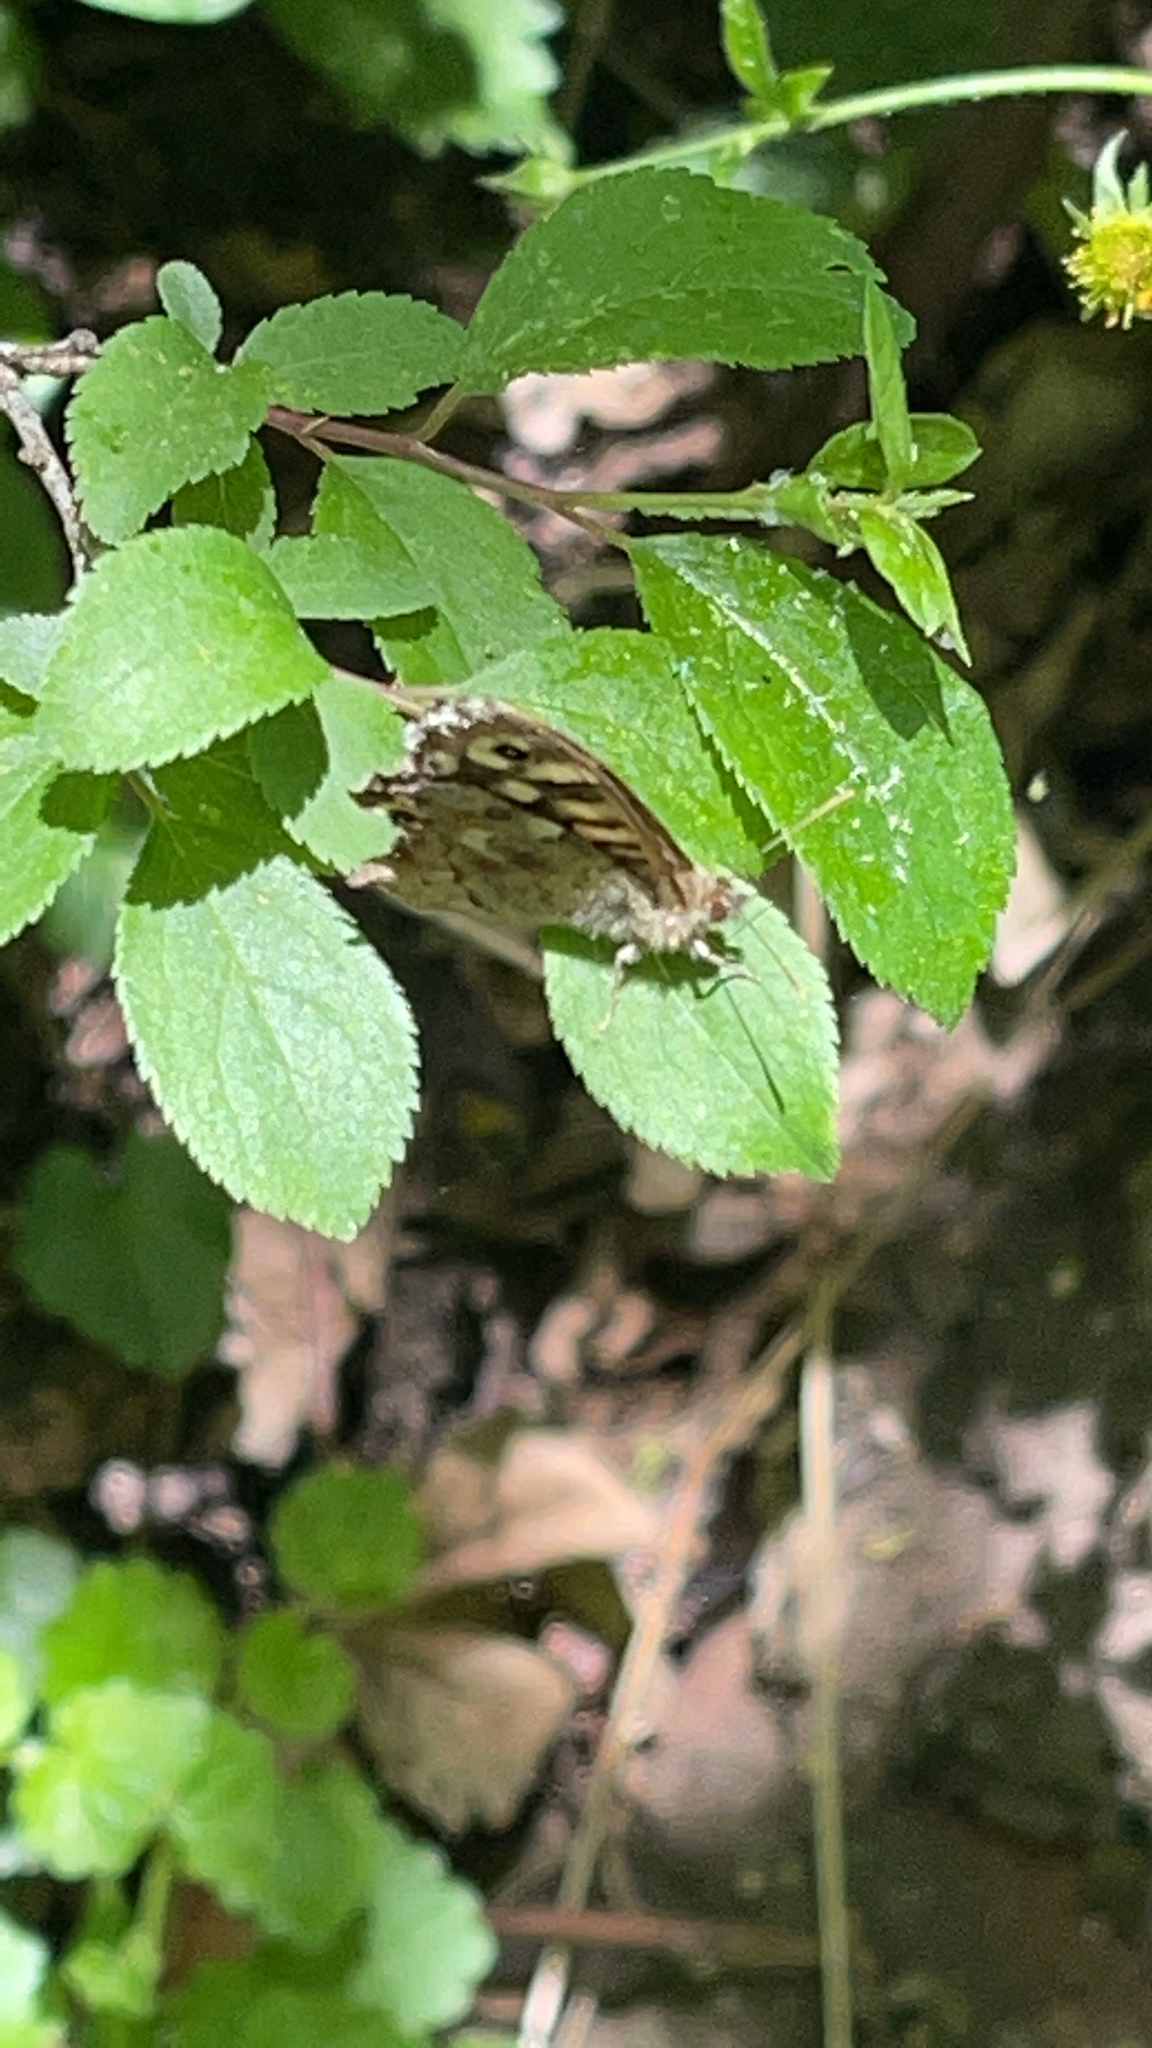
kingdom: Animalia
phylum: Arthropoda
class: Insecta
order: Lepidoptera
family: Nymphalidae
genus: Pararge
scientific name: Pararge aegeria
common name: Speckled wood
